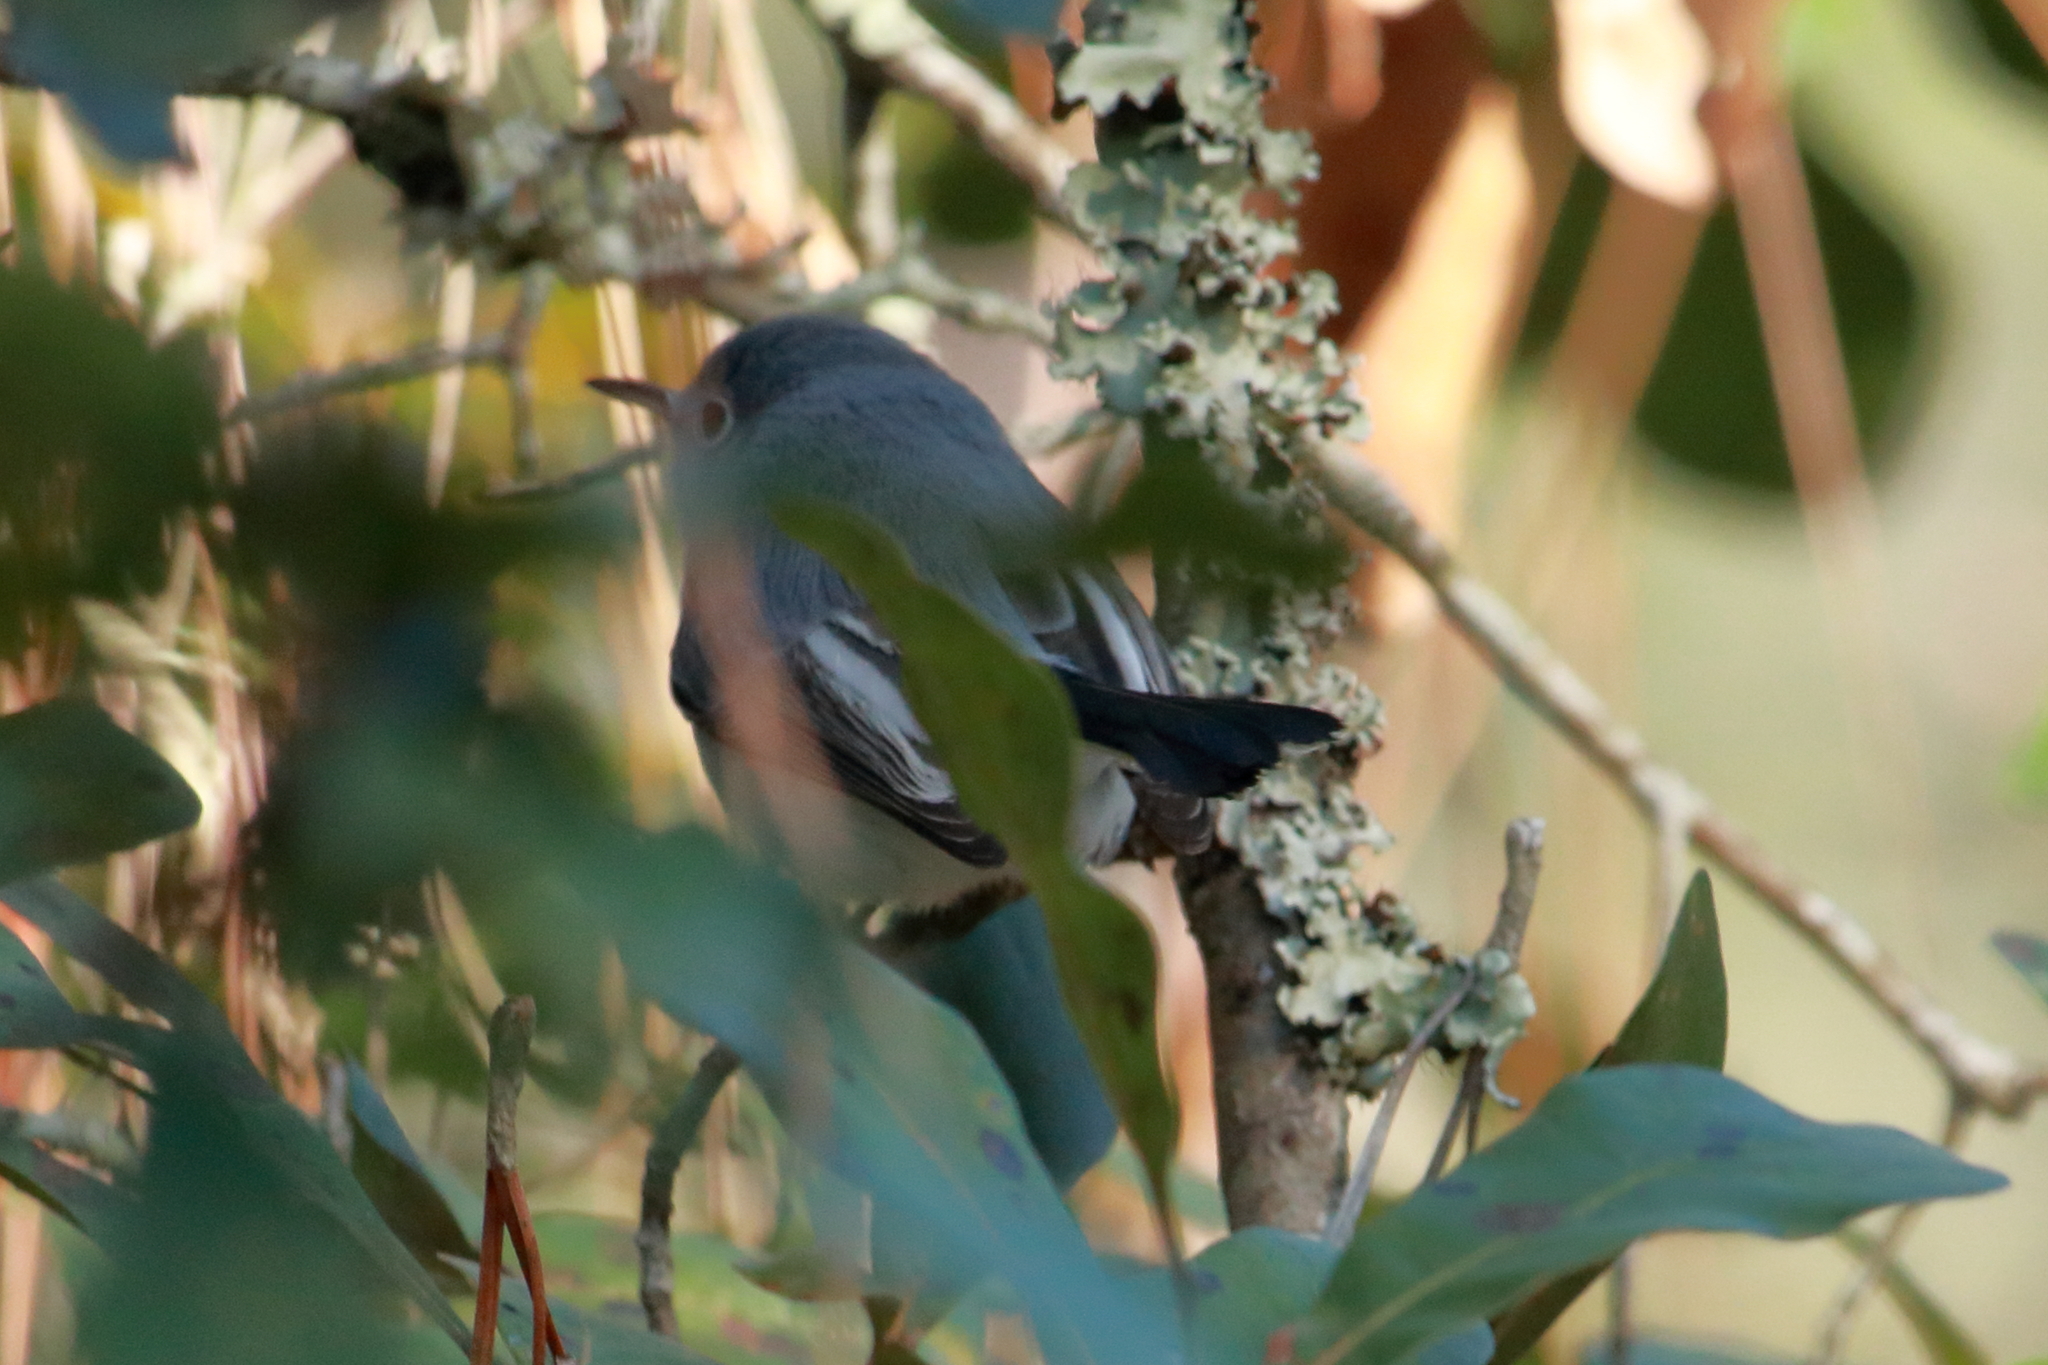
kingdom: Animalia
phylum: Chordata
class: Aves
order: Passeriformes
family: Polioptilidae
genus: Polioptila
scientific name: Polioptila caerulea
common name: Blue-gray gnatcatcher
